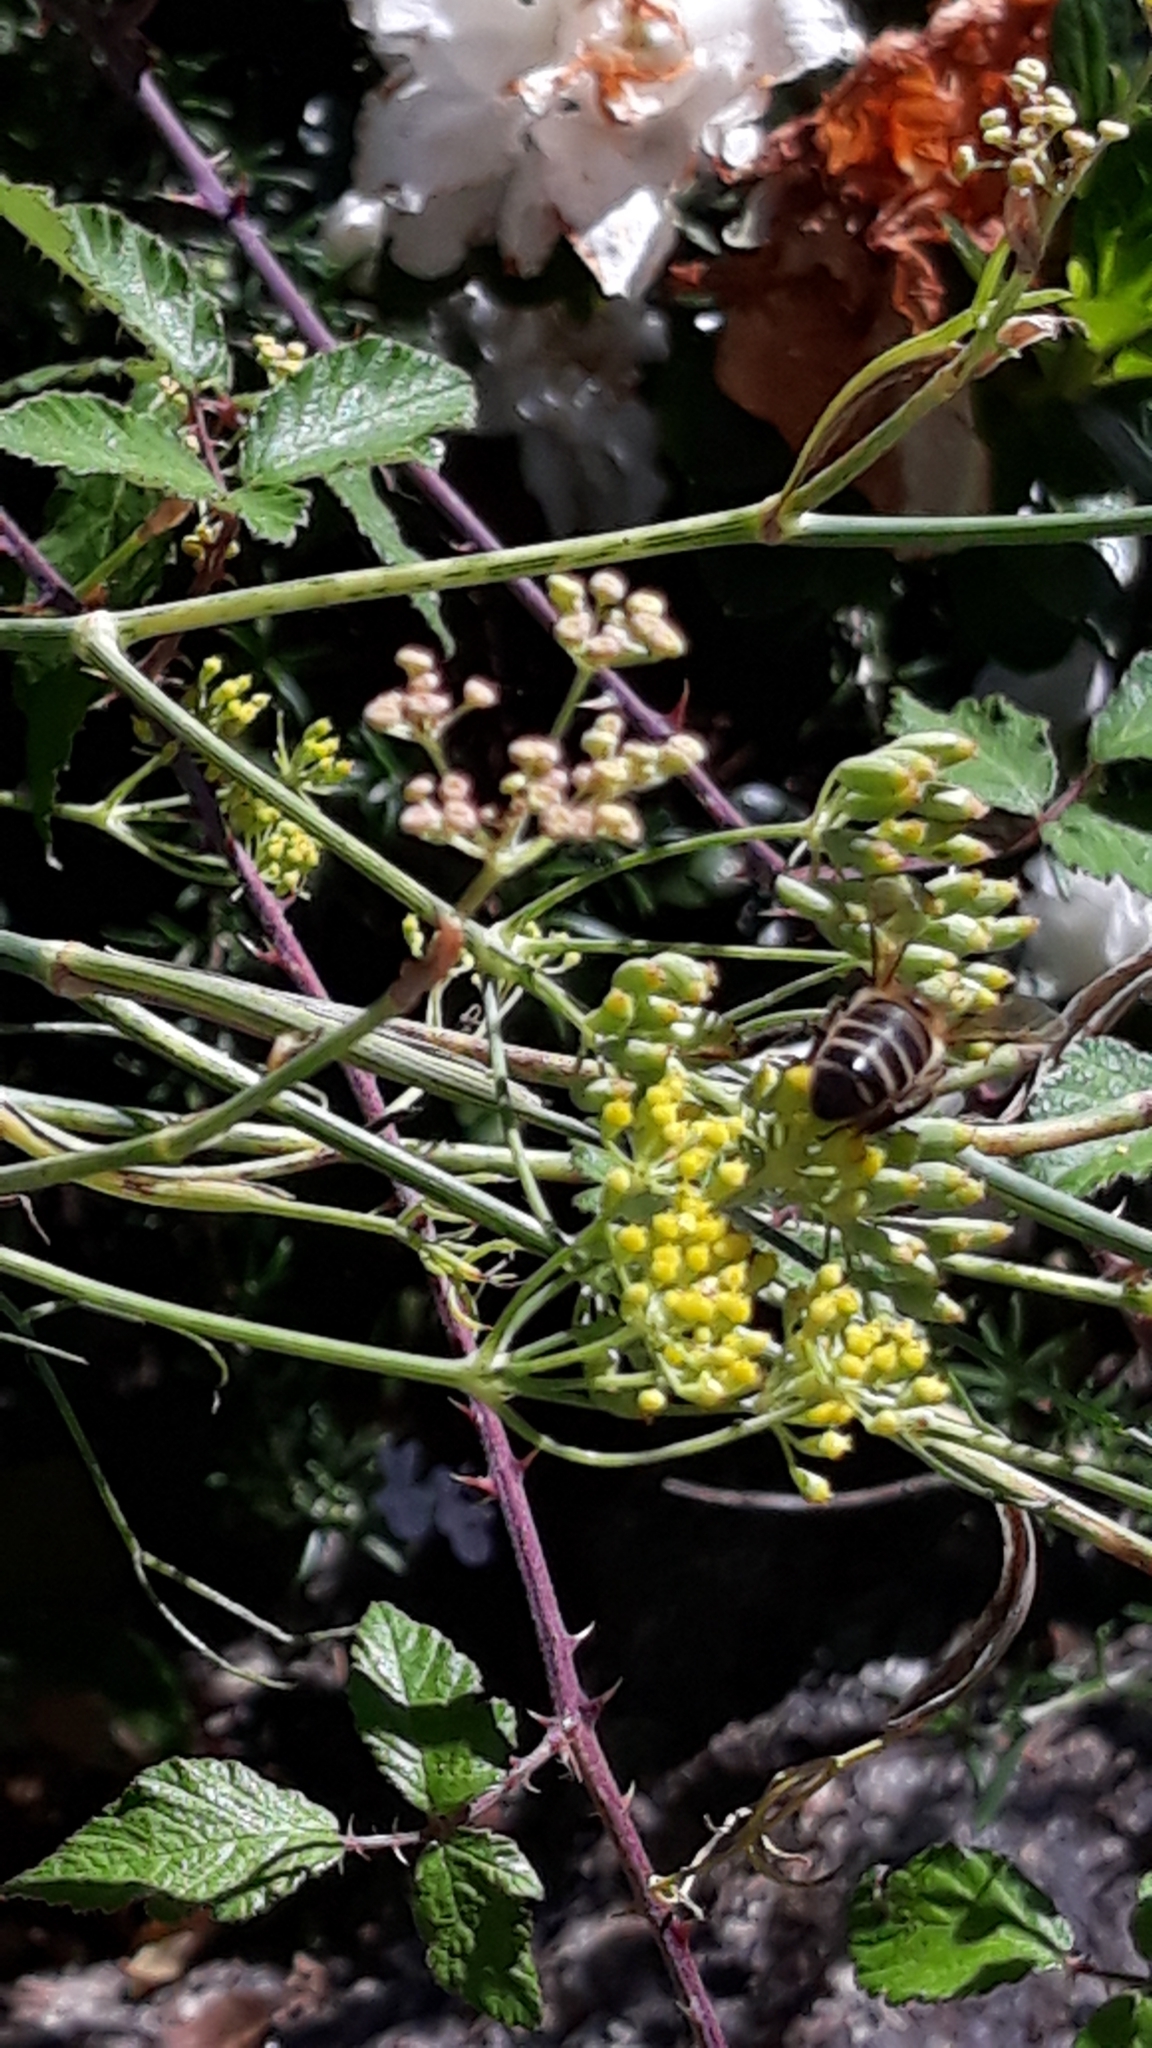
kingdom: Animalia
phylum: Arthropoda
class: Insecta
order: Hymenoptera
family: Apidae
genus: Apis
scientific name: Apis mellifera
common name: Honey bee
